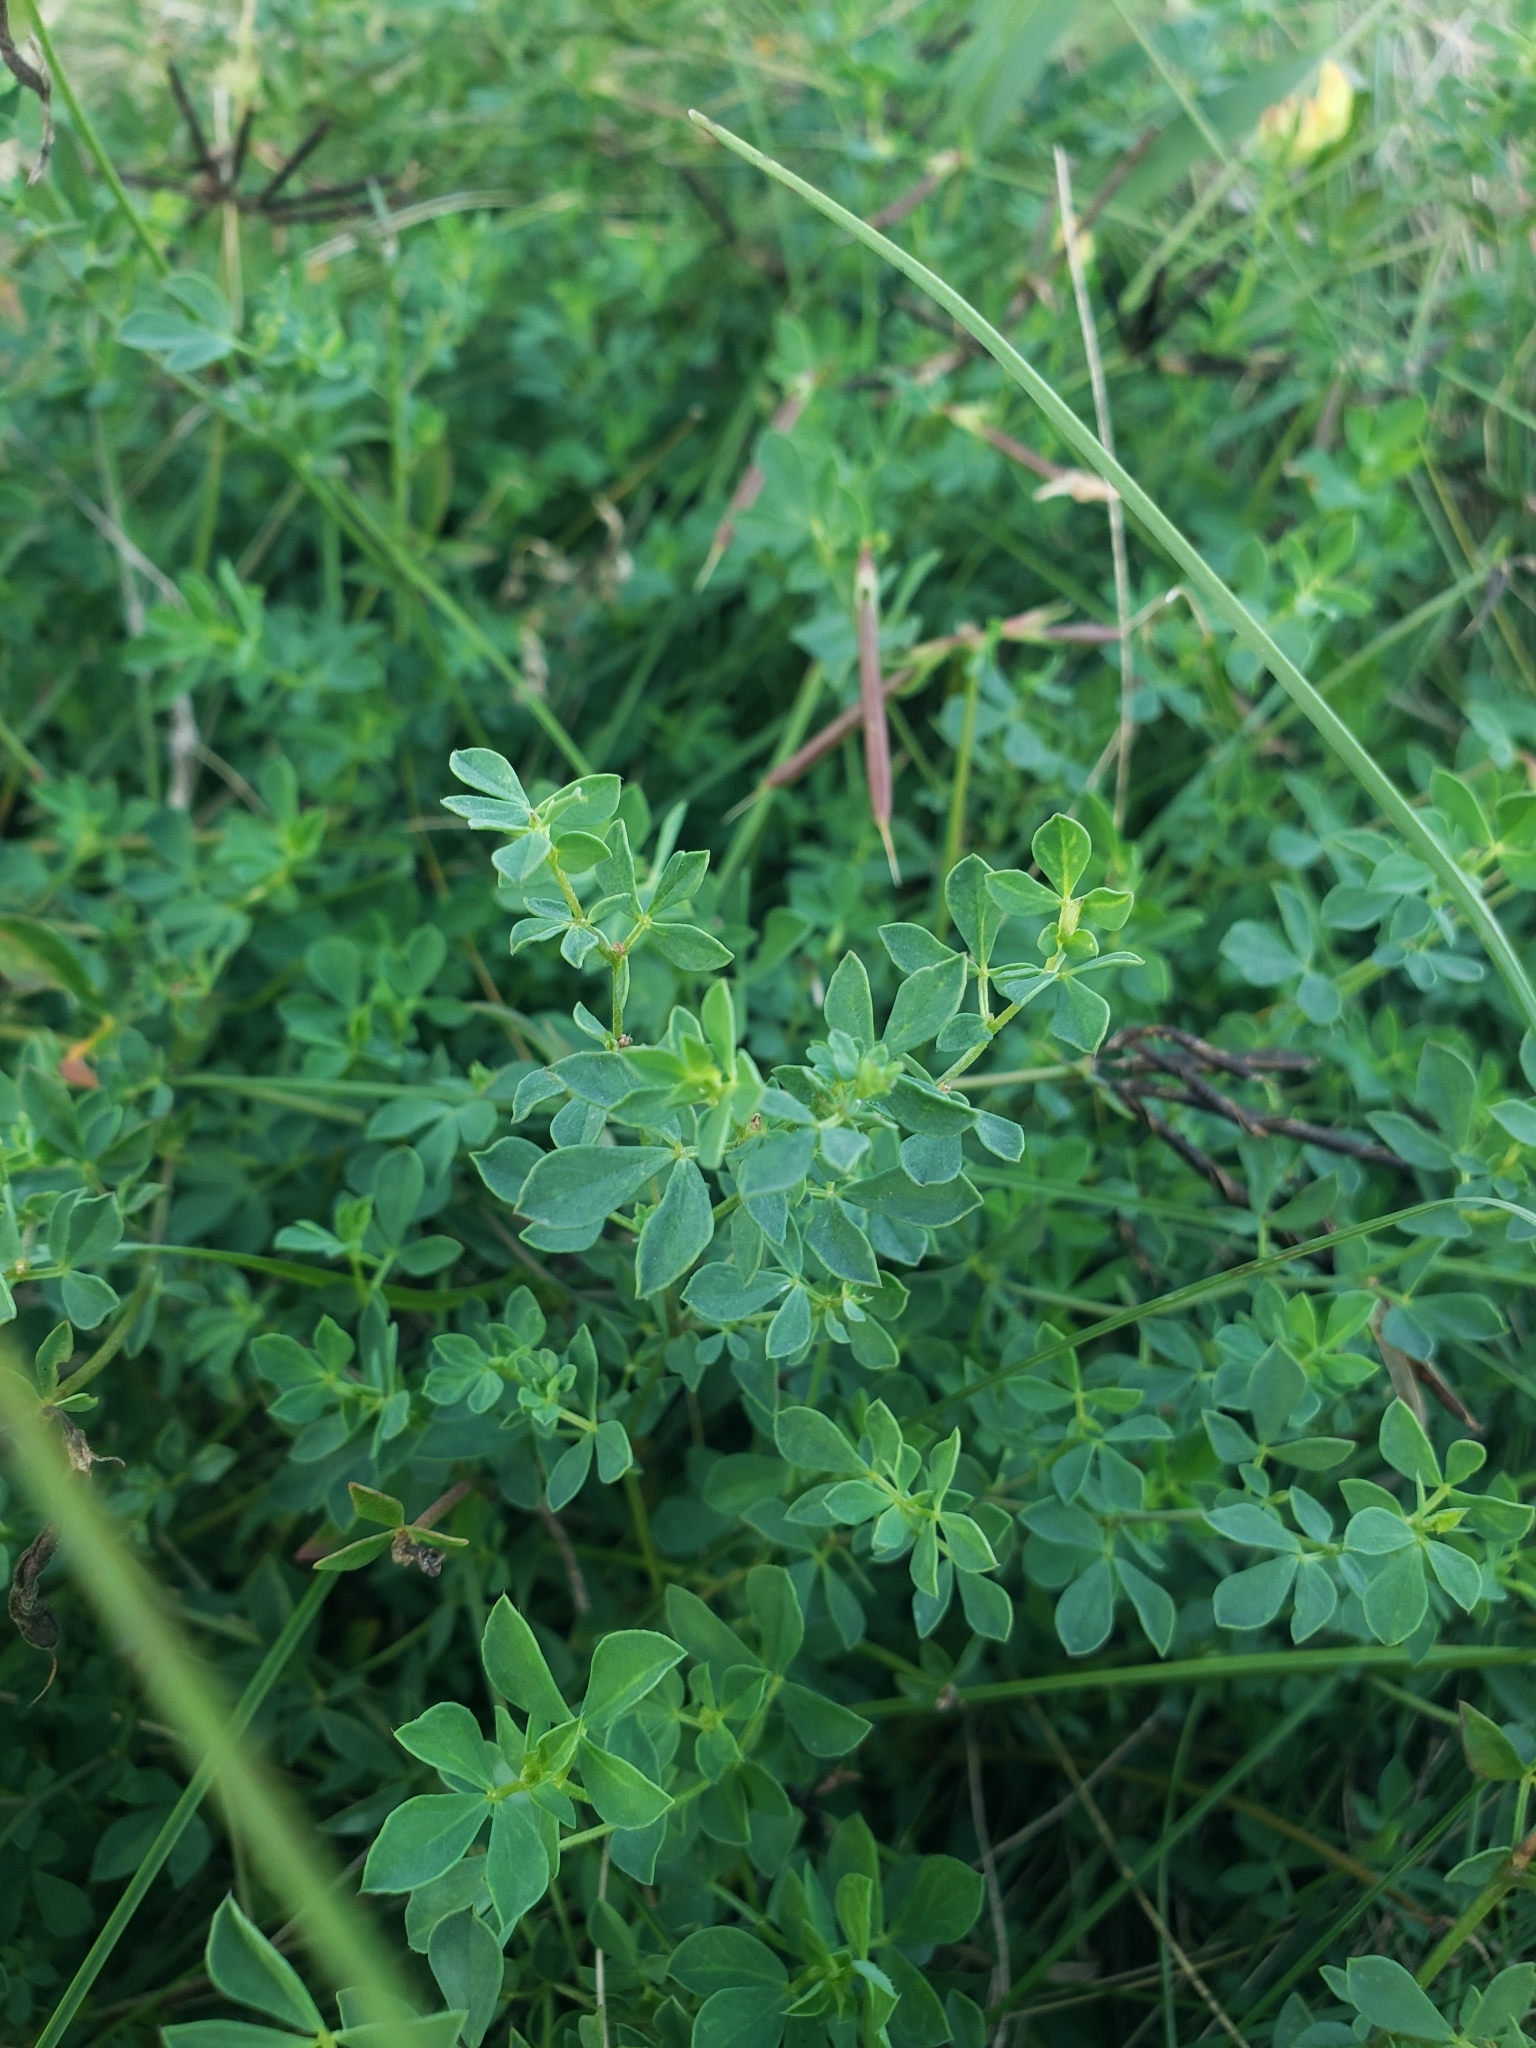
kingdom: Plantae
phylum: Tracheophyta
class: Magnoliopsida
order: Fabales
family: Fabaceae
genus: Lotus
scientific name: Lotus corniculatus
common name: Common bird's-foot-trefoil
